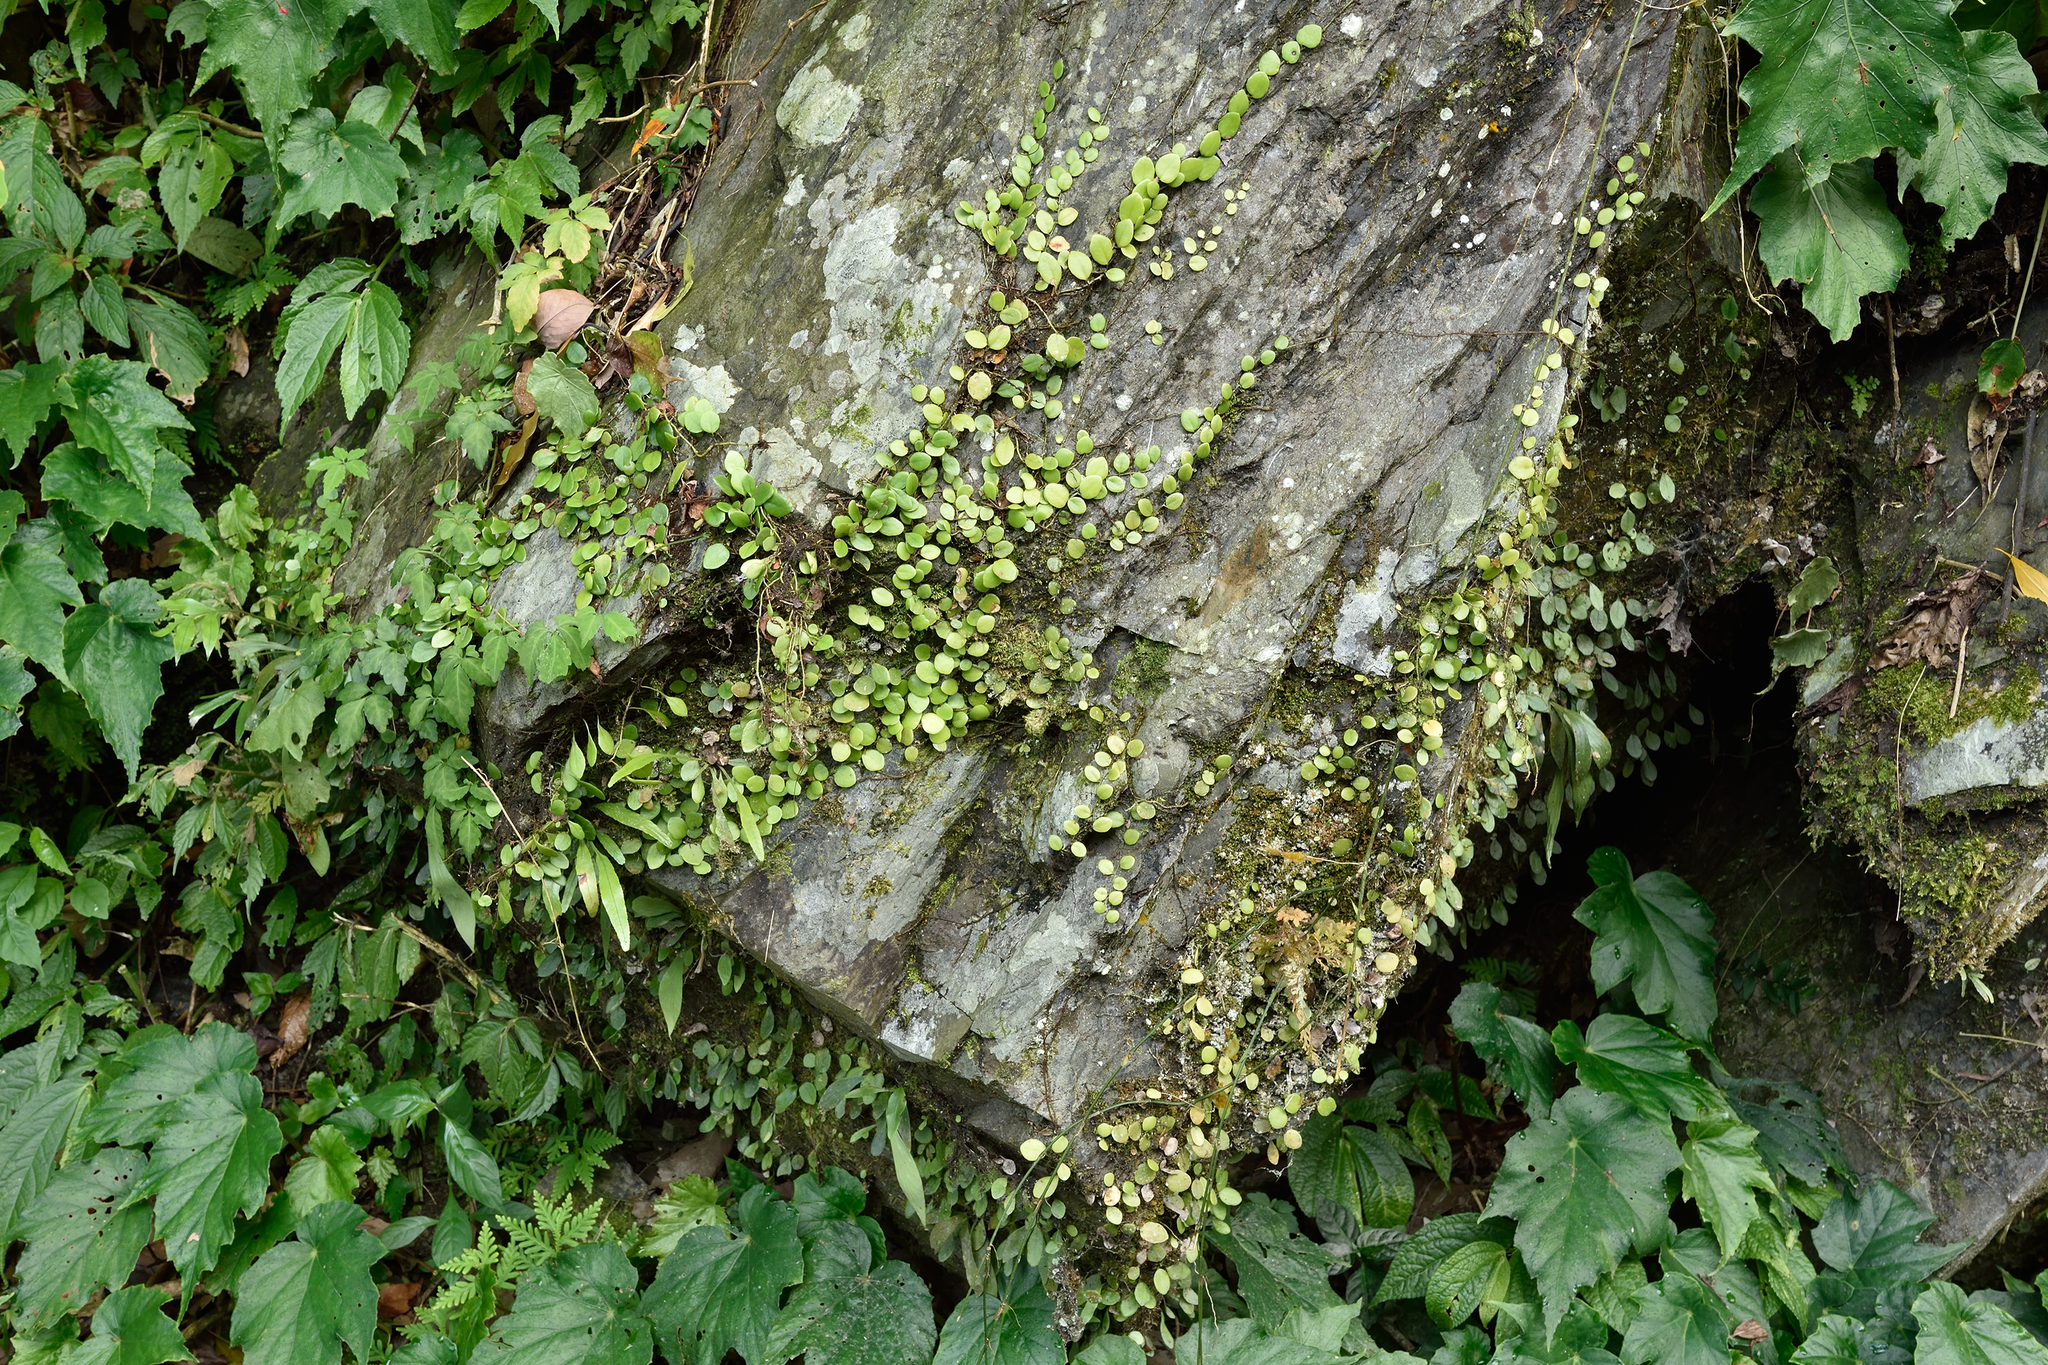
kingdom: Plantae
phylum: Tracheophyta
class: Polypodiopsida
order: Polypodiales
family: Polypodiaceae
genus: Lepisorus
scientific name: Lepisorus microphyllus
